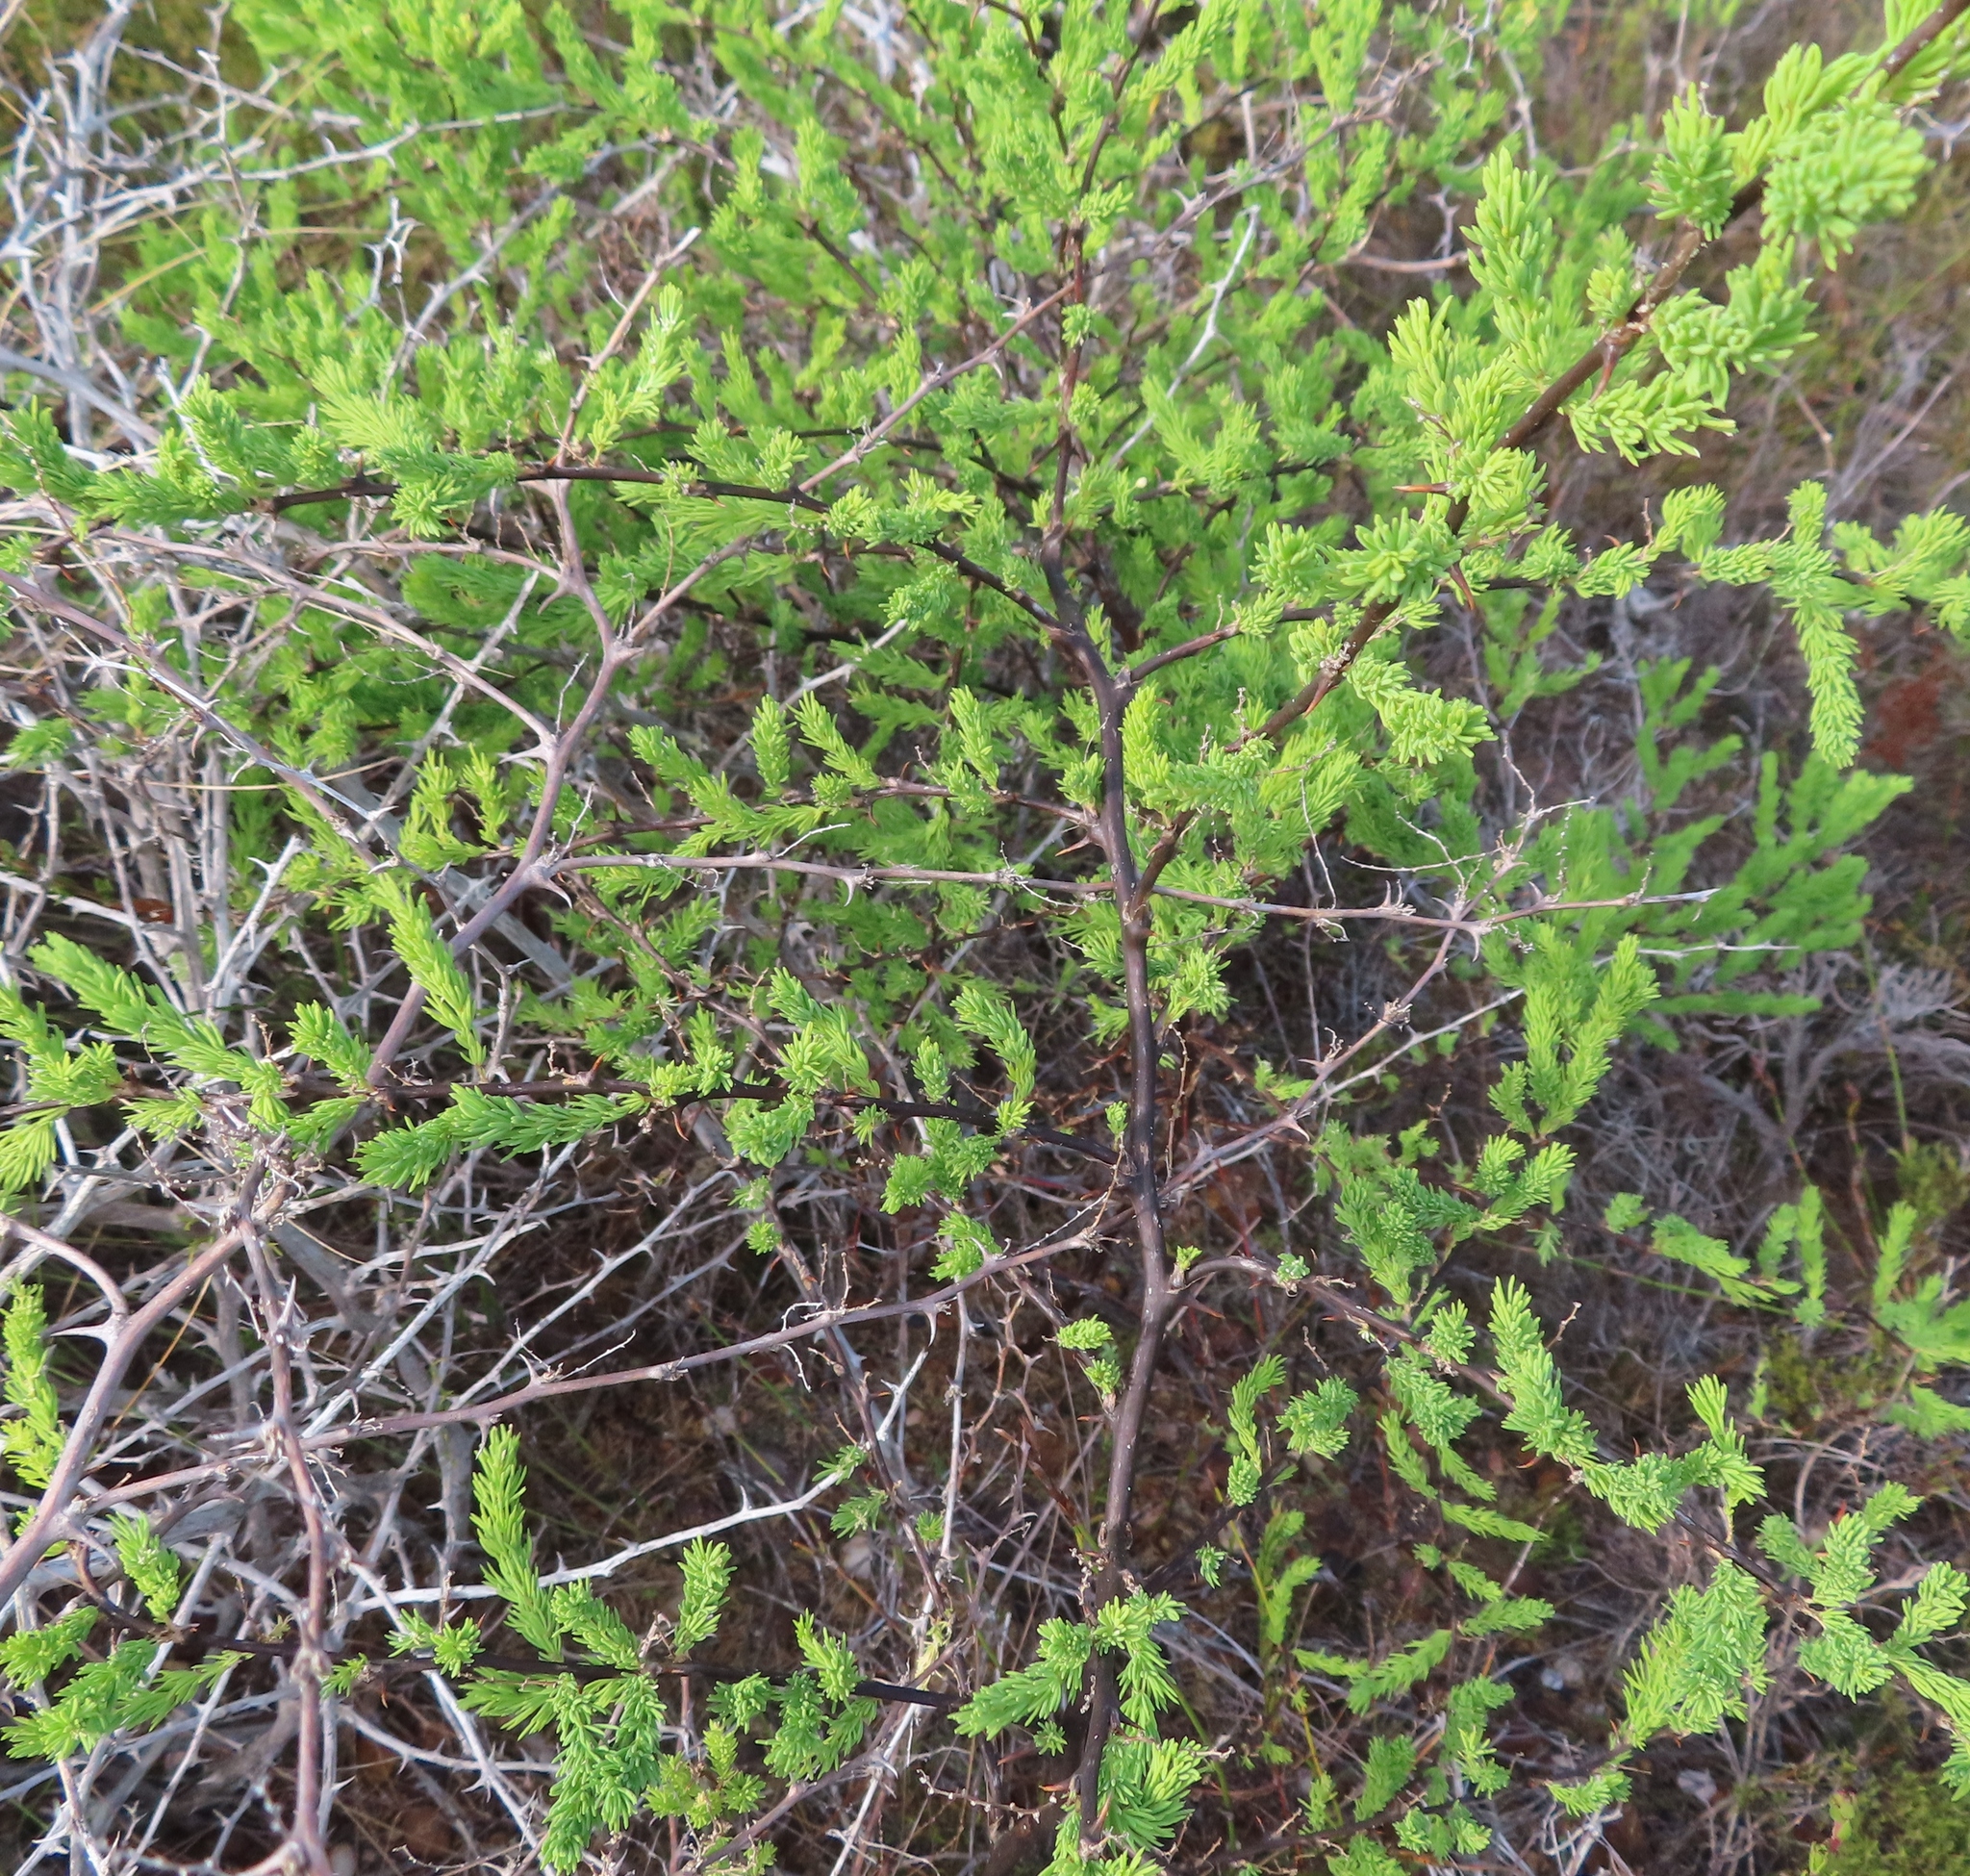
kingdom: Plantae
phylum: Tracheophyta
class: Liliopsida
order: Asparagales
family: Asparagaceae
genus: Asparagus
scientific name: Asparagus rubicundus
